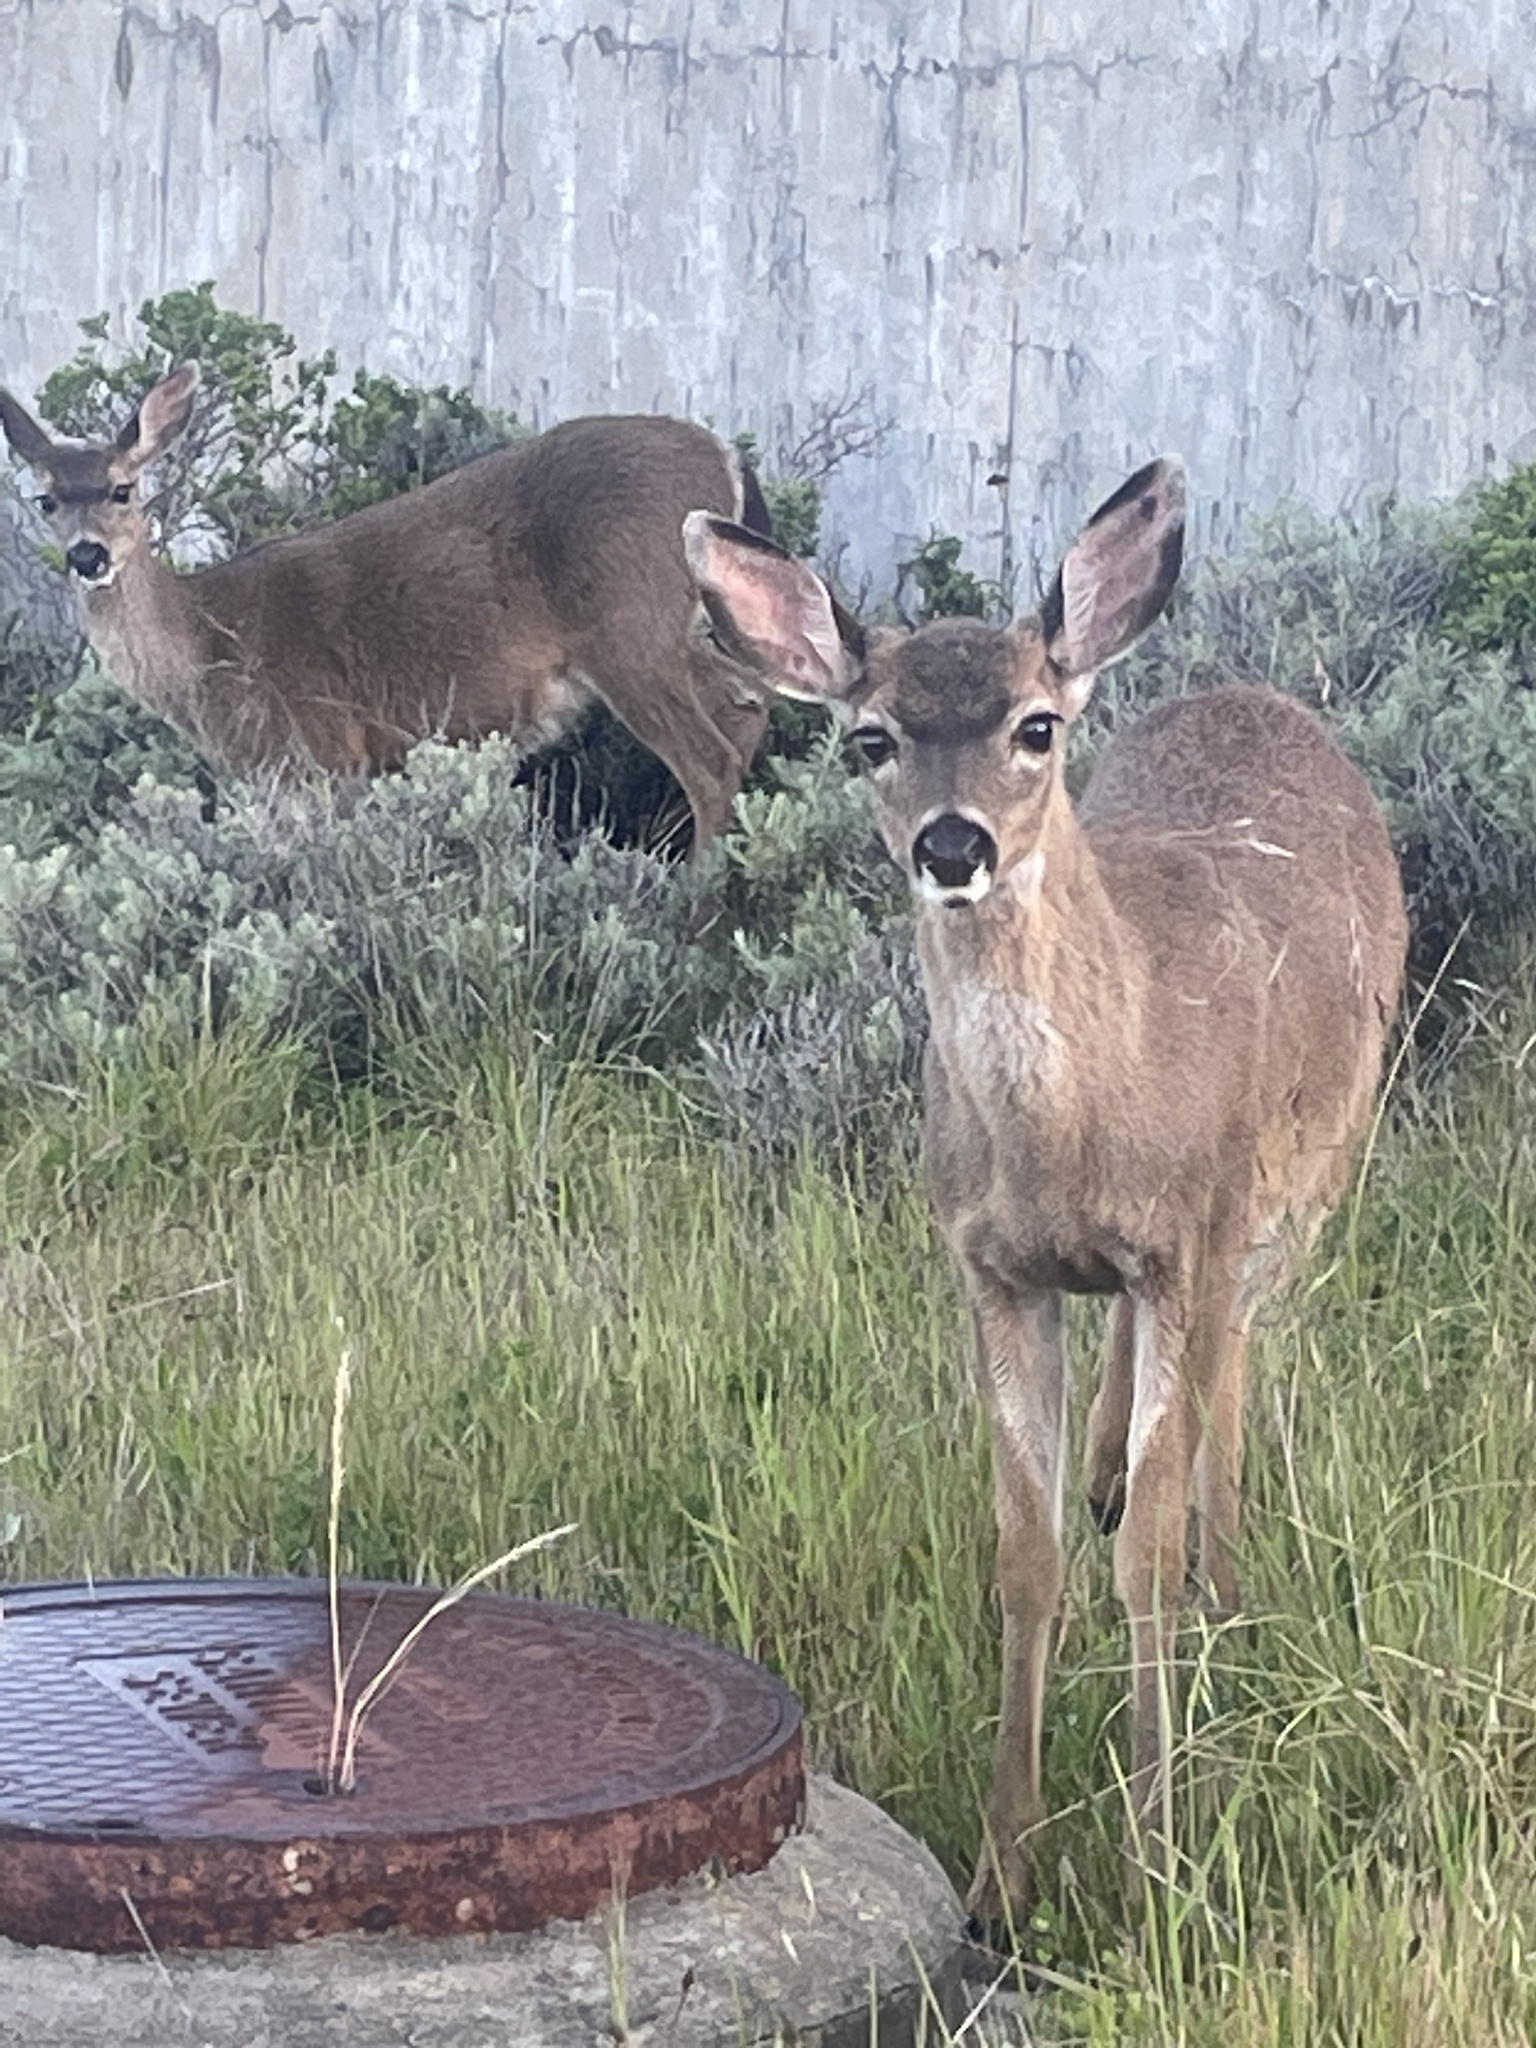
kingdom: Animalia
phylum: Chordata
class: Mammalia
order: Artiodactyla
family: Cervidae
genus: Odocoileus
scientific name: Odocoileus hemionus
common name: Mule deer
